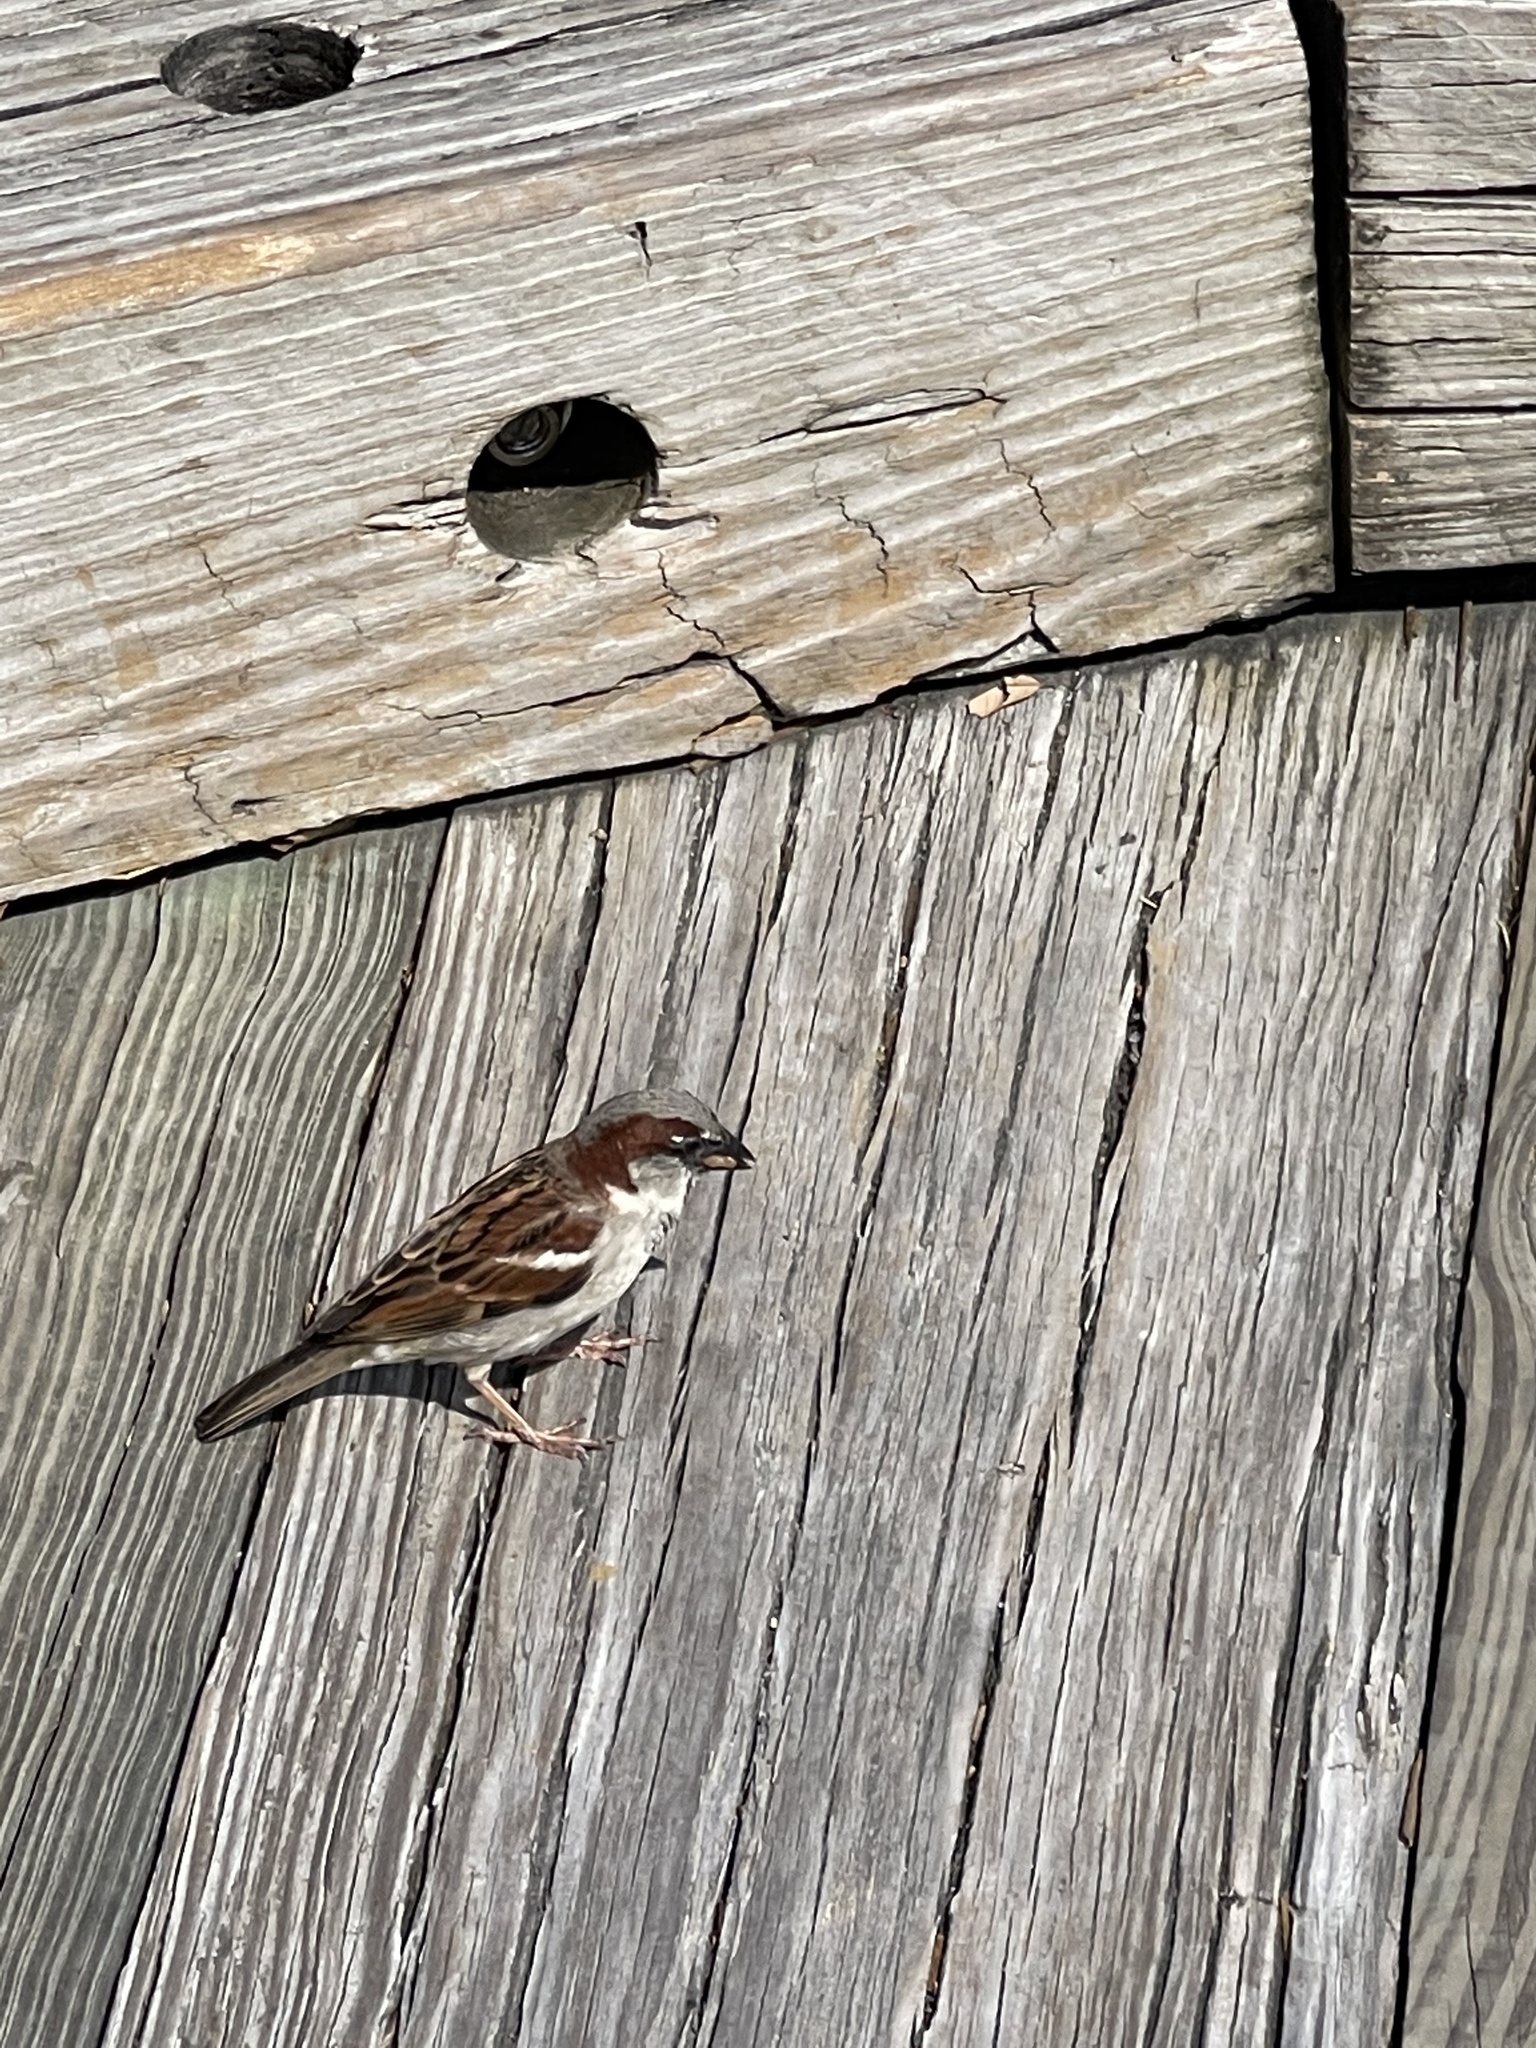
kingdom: Animalia
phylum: Chordata
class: Aves
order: Passeriformes
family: Passeridae
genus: Passer
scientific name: Passer domesticus
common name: House sparrow
